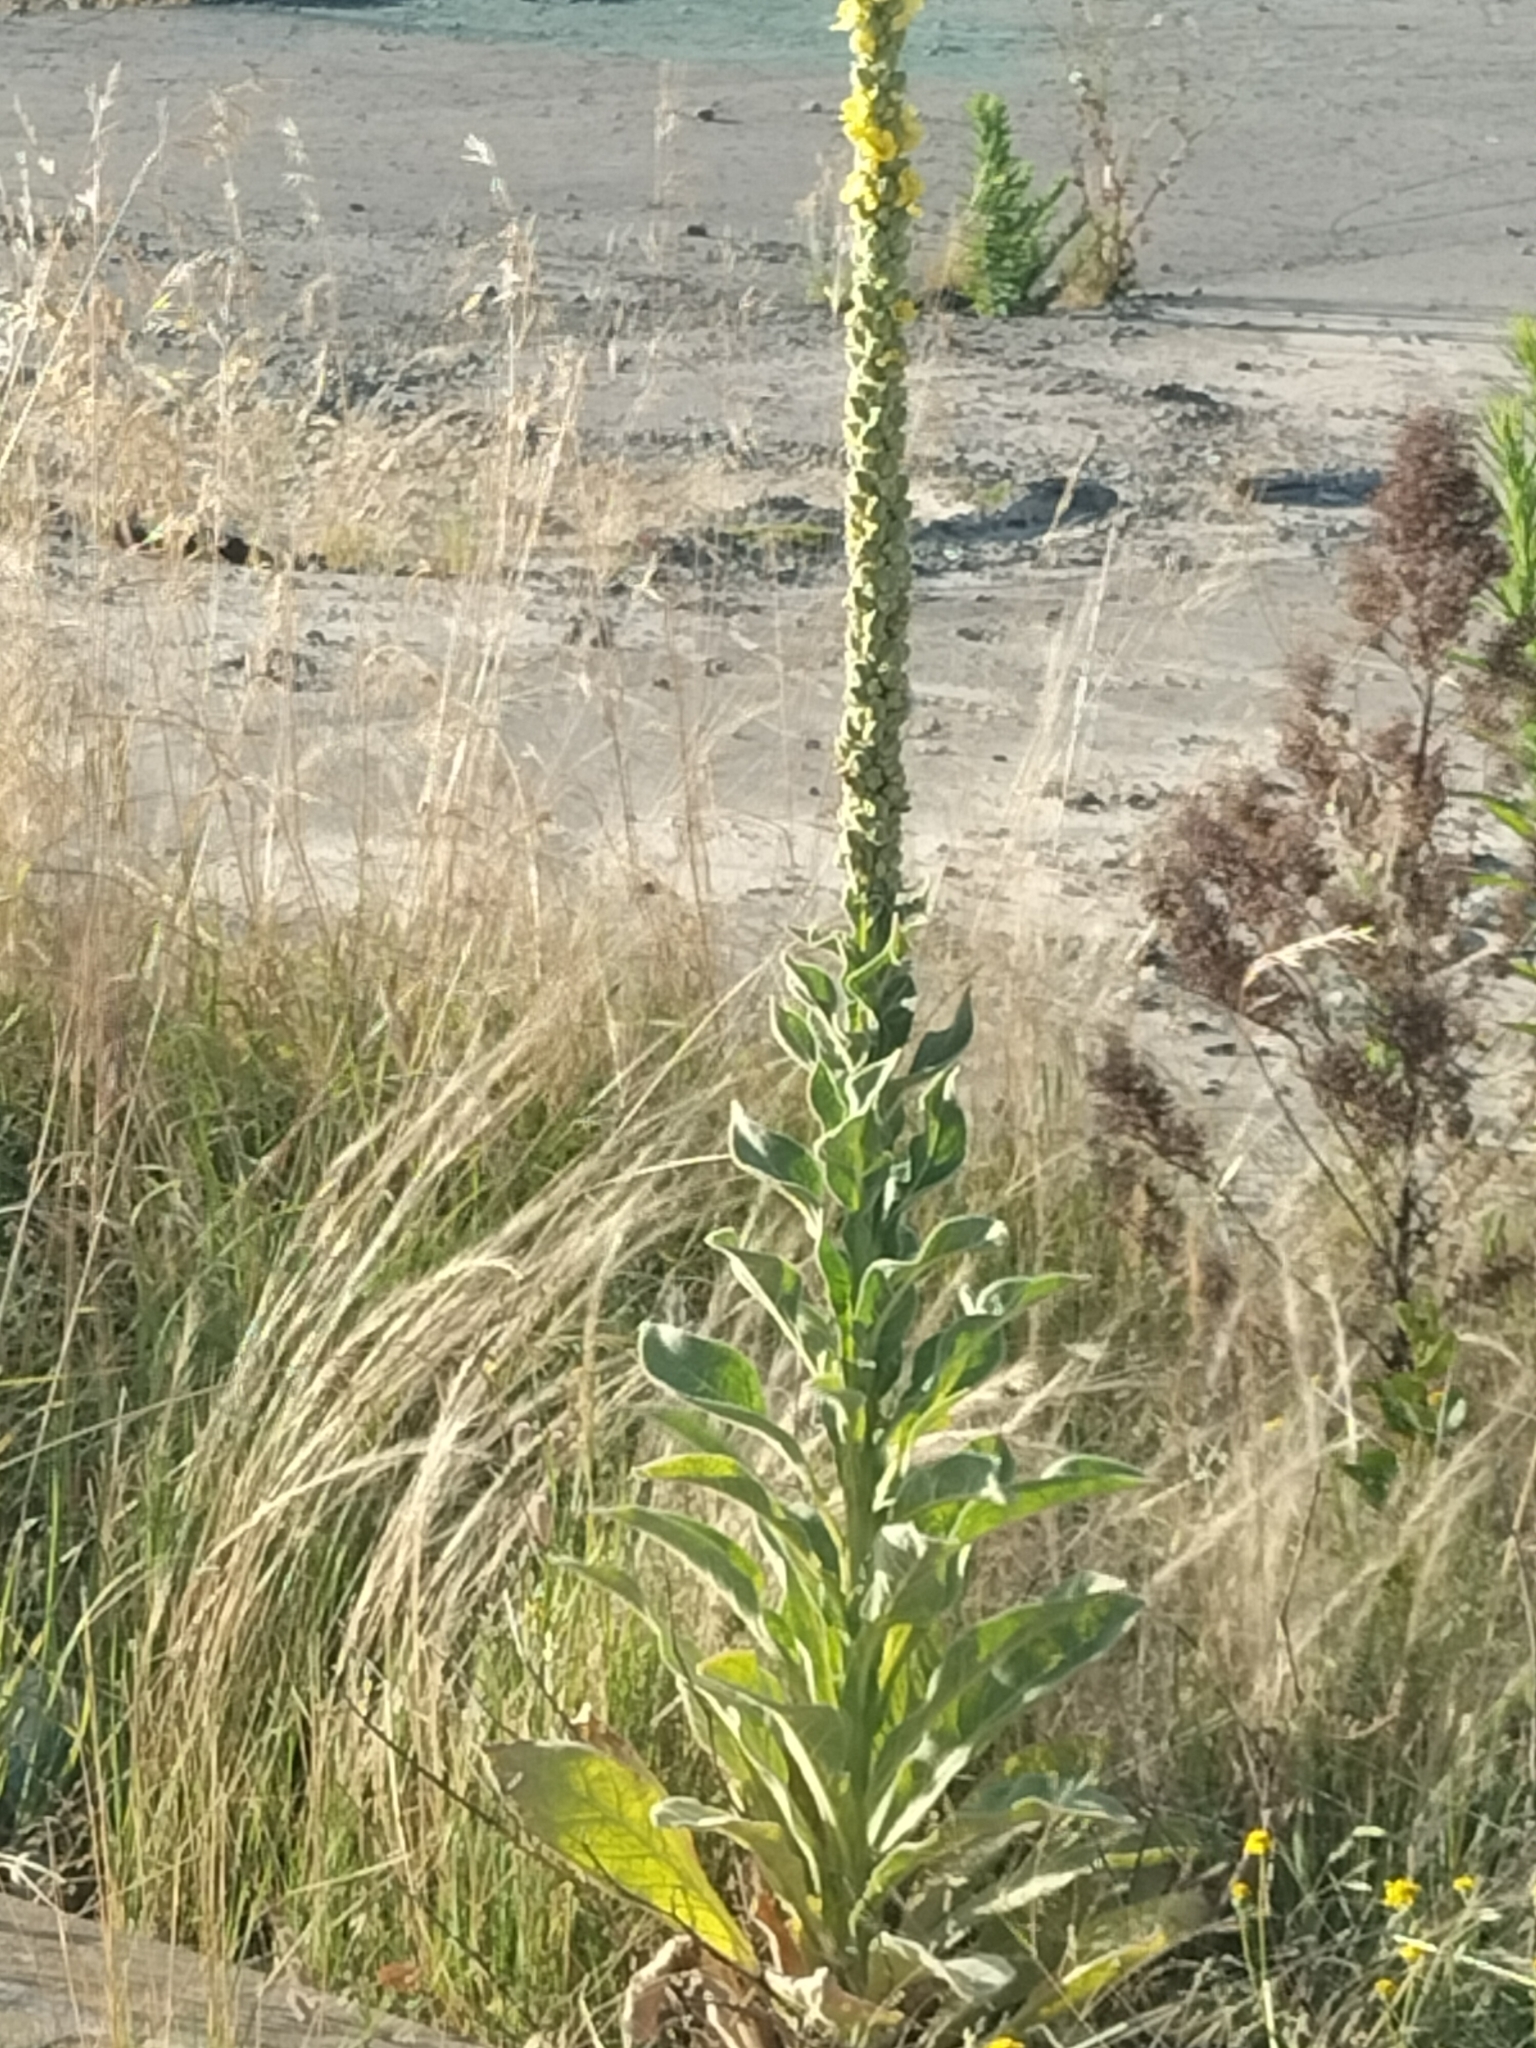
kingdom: Plantae
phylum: Tracheophyta
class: Magnoliopsida
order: Lamiales
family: Scrophulariaceae
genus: Verbascum
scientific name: Verbascum thapsus
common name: Common mullein
